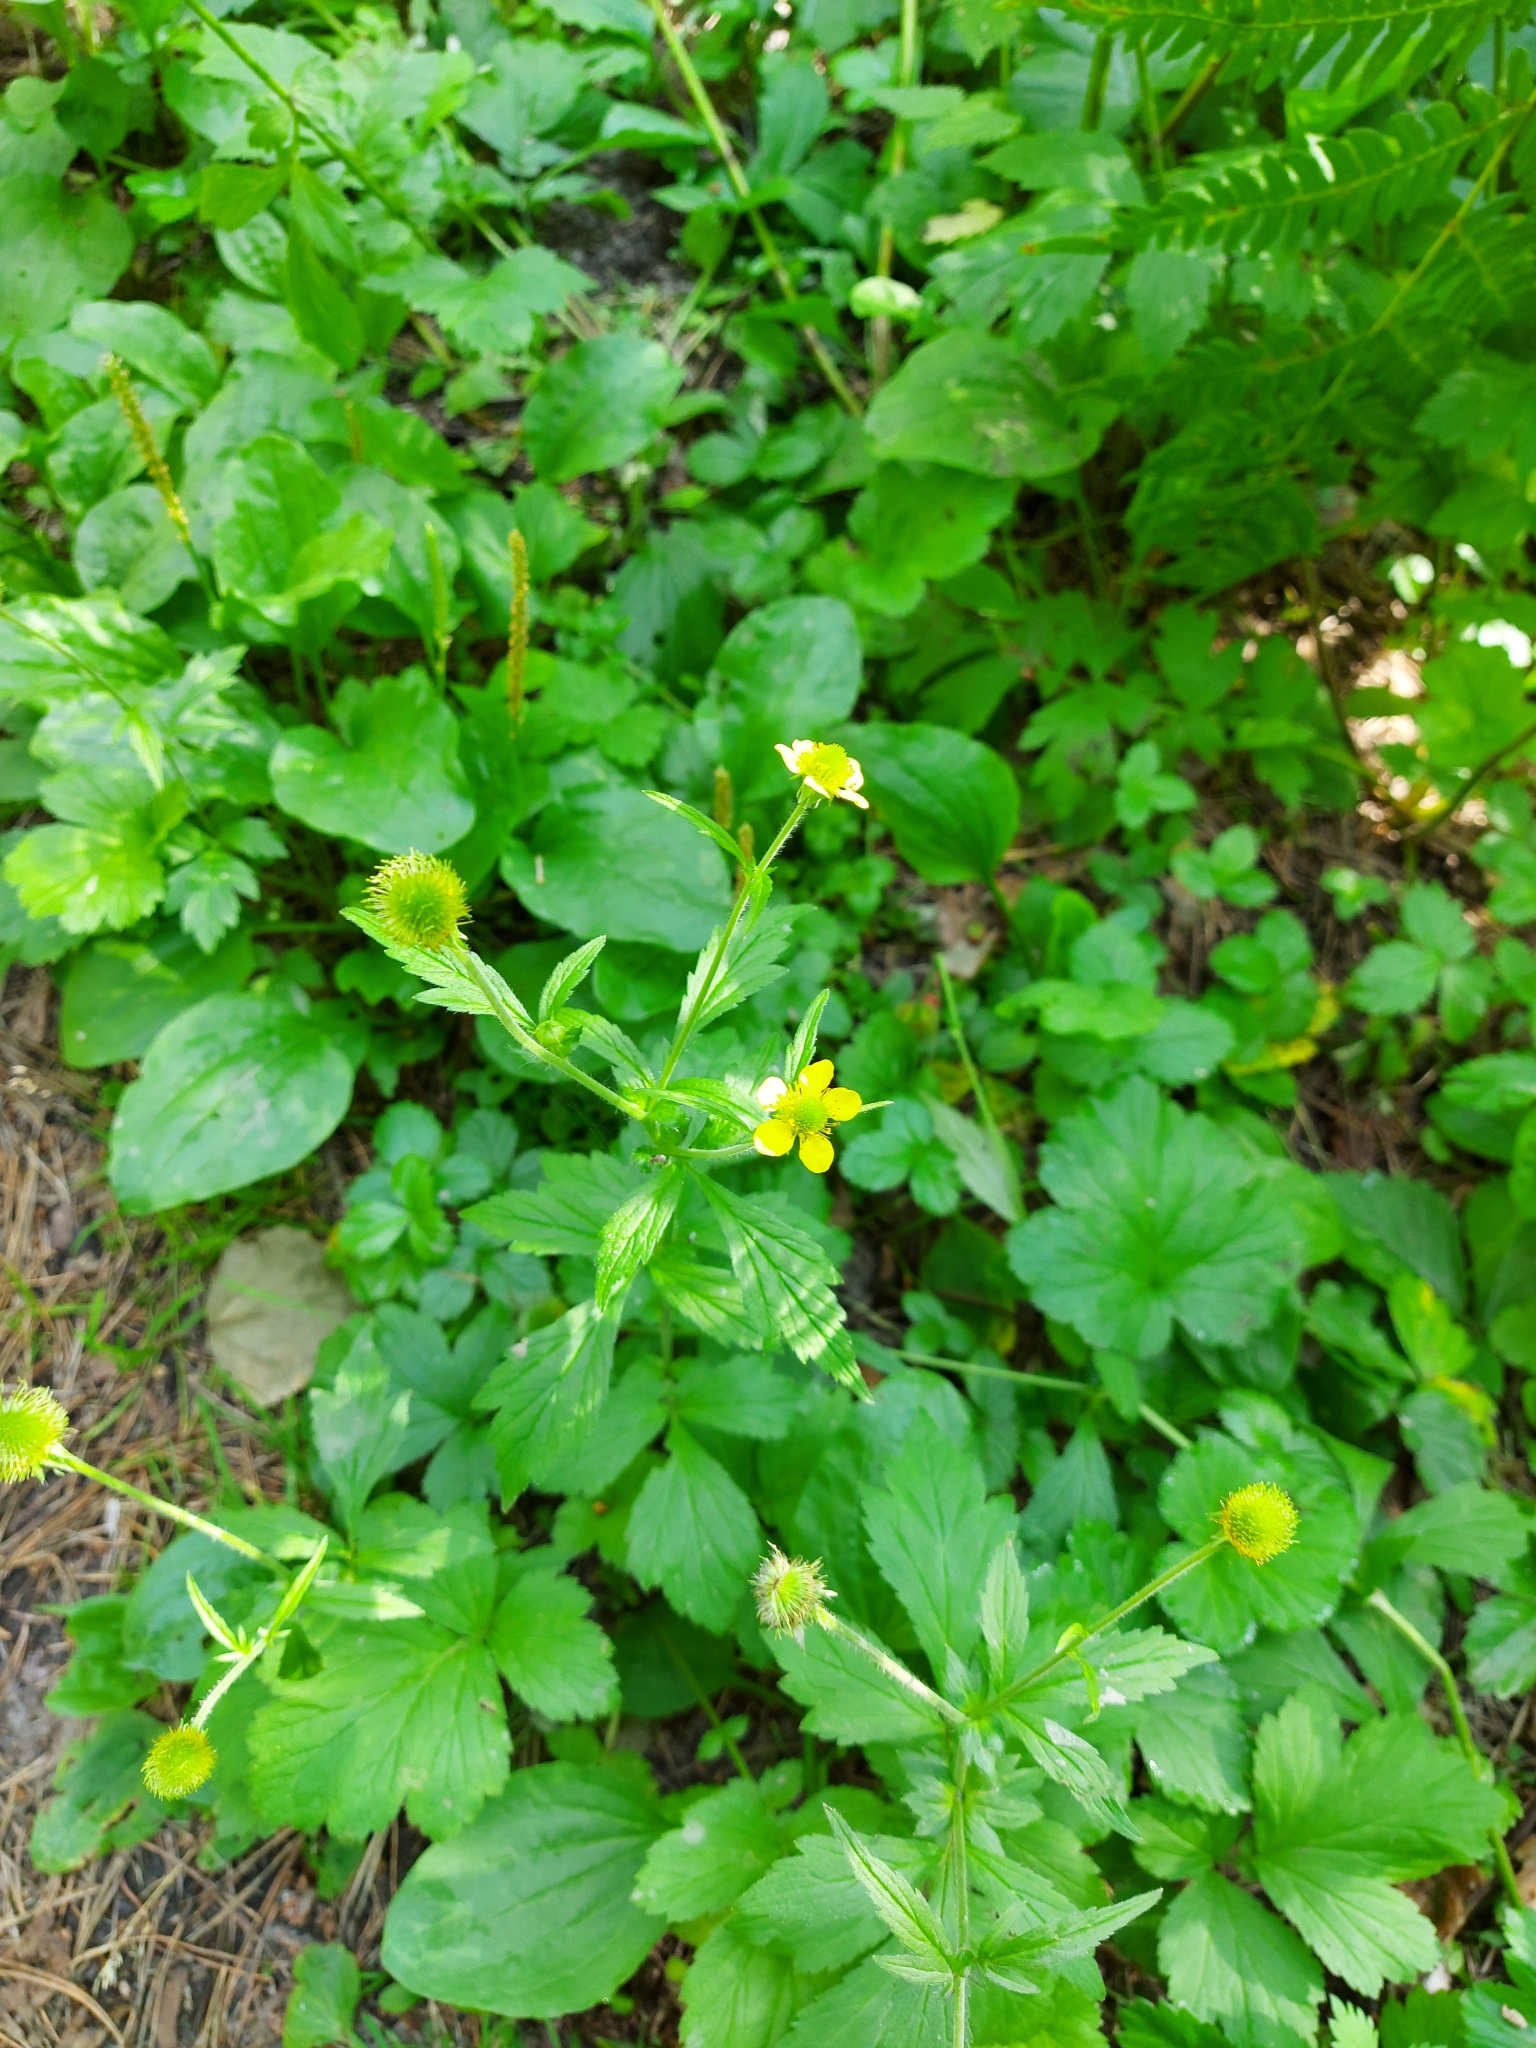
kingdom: Plantae
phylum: Tracheophyta
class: Magnoliopsida
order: Rosales
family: Rosaceae
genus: Geum
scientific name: Geum aleppicum
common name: Yellow avens
